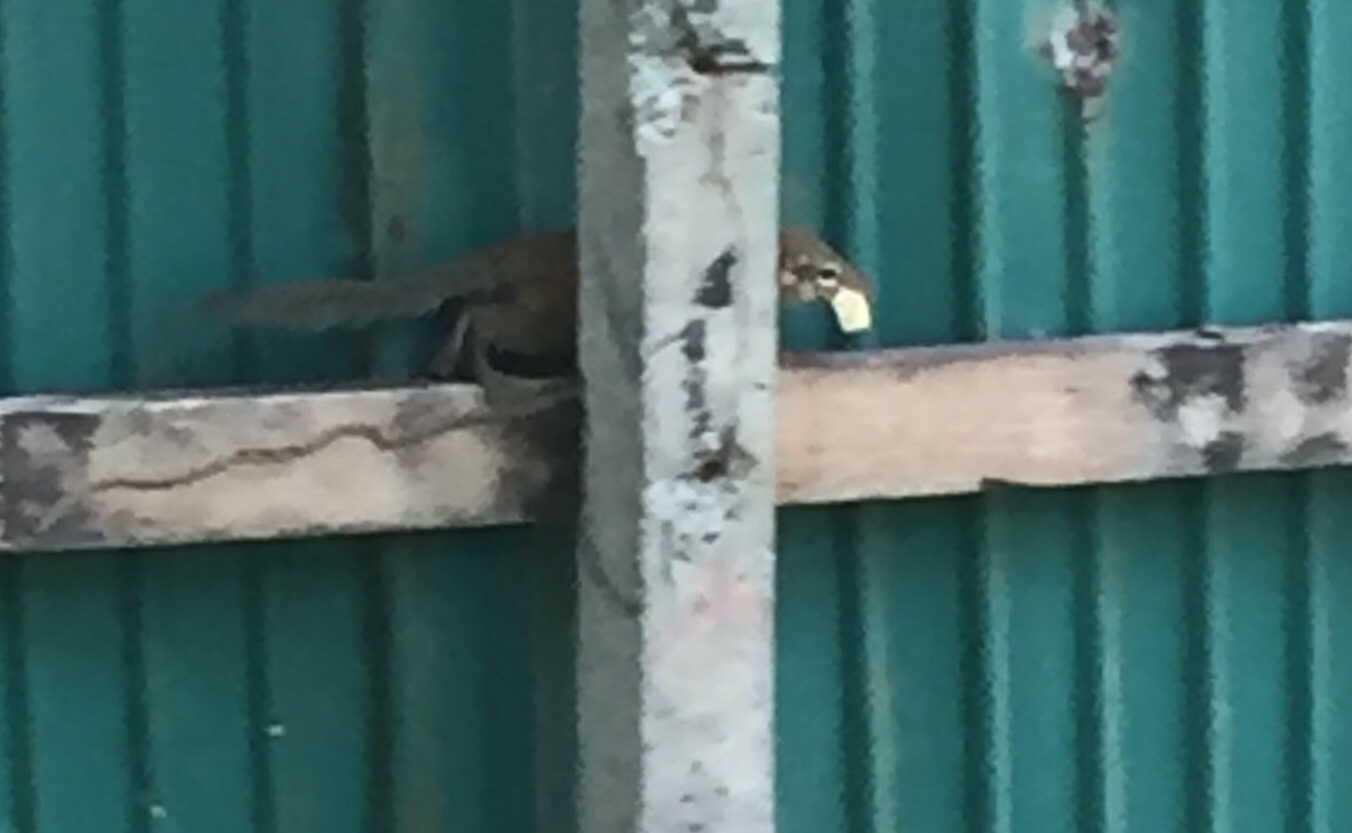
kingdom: Animalia
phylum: Chordata
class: Mammalia
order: Scandentia
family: Tupaiidae
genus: Tupaia
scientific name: Tupaia belangeri
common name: Northern treeshrew
